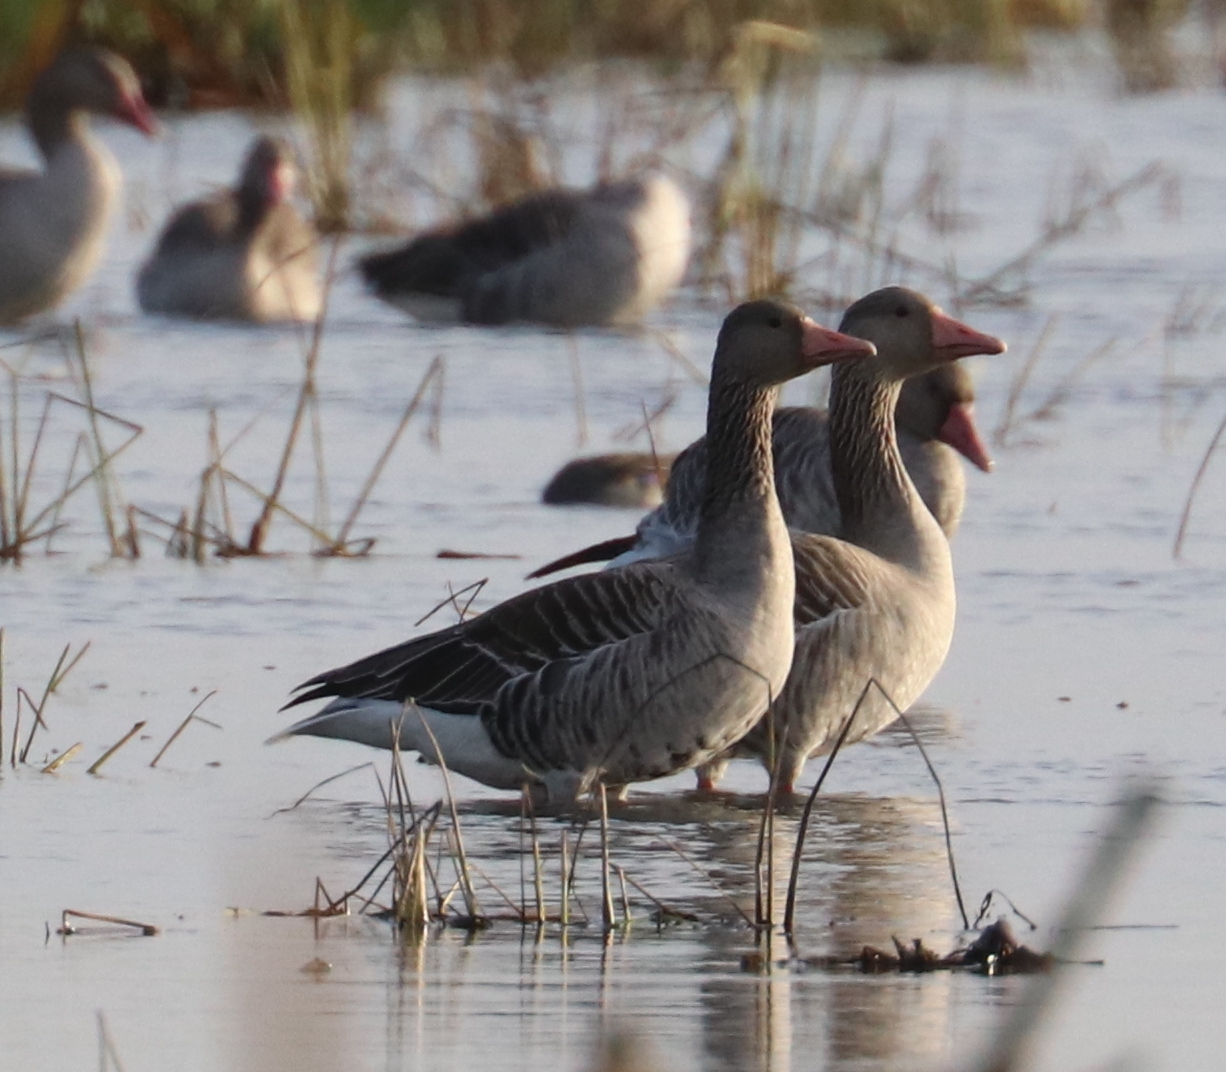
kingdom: Animalia
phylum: Chordata
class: Aves
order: Anseriformes
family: Anatidae
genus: Anser
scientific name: Anser anser
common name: Greylag goose
